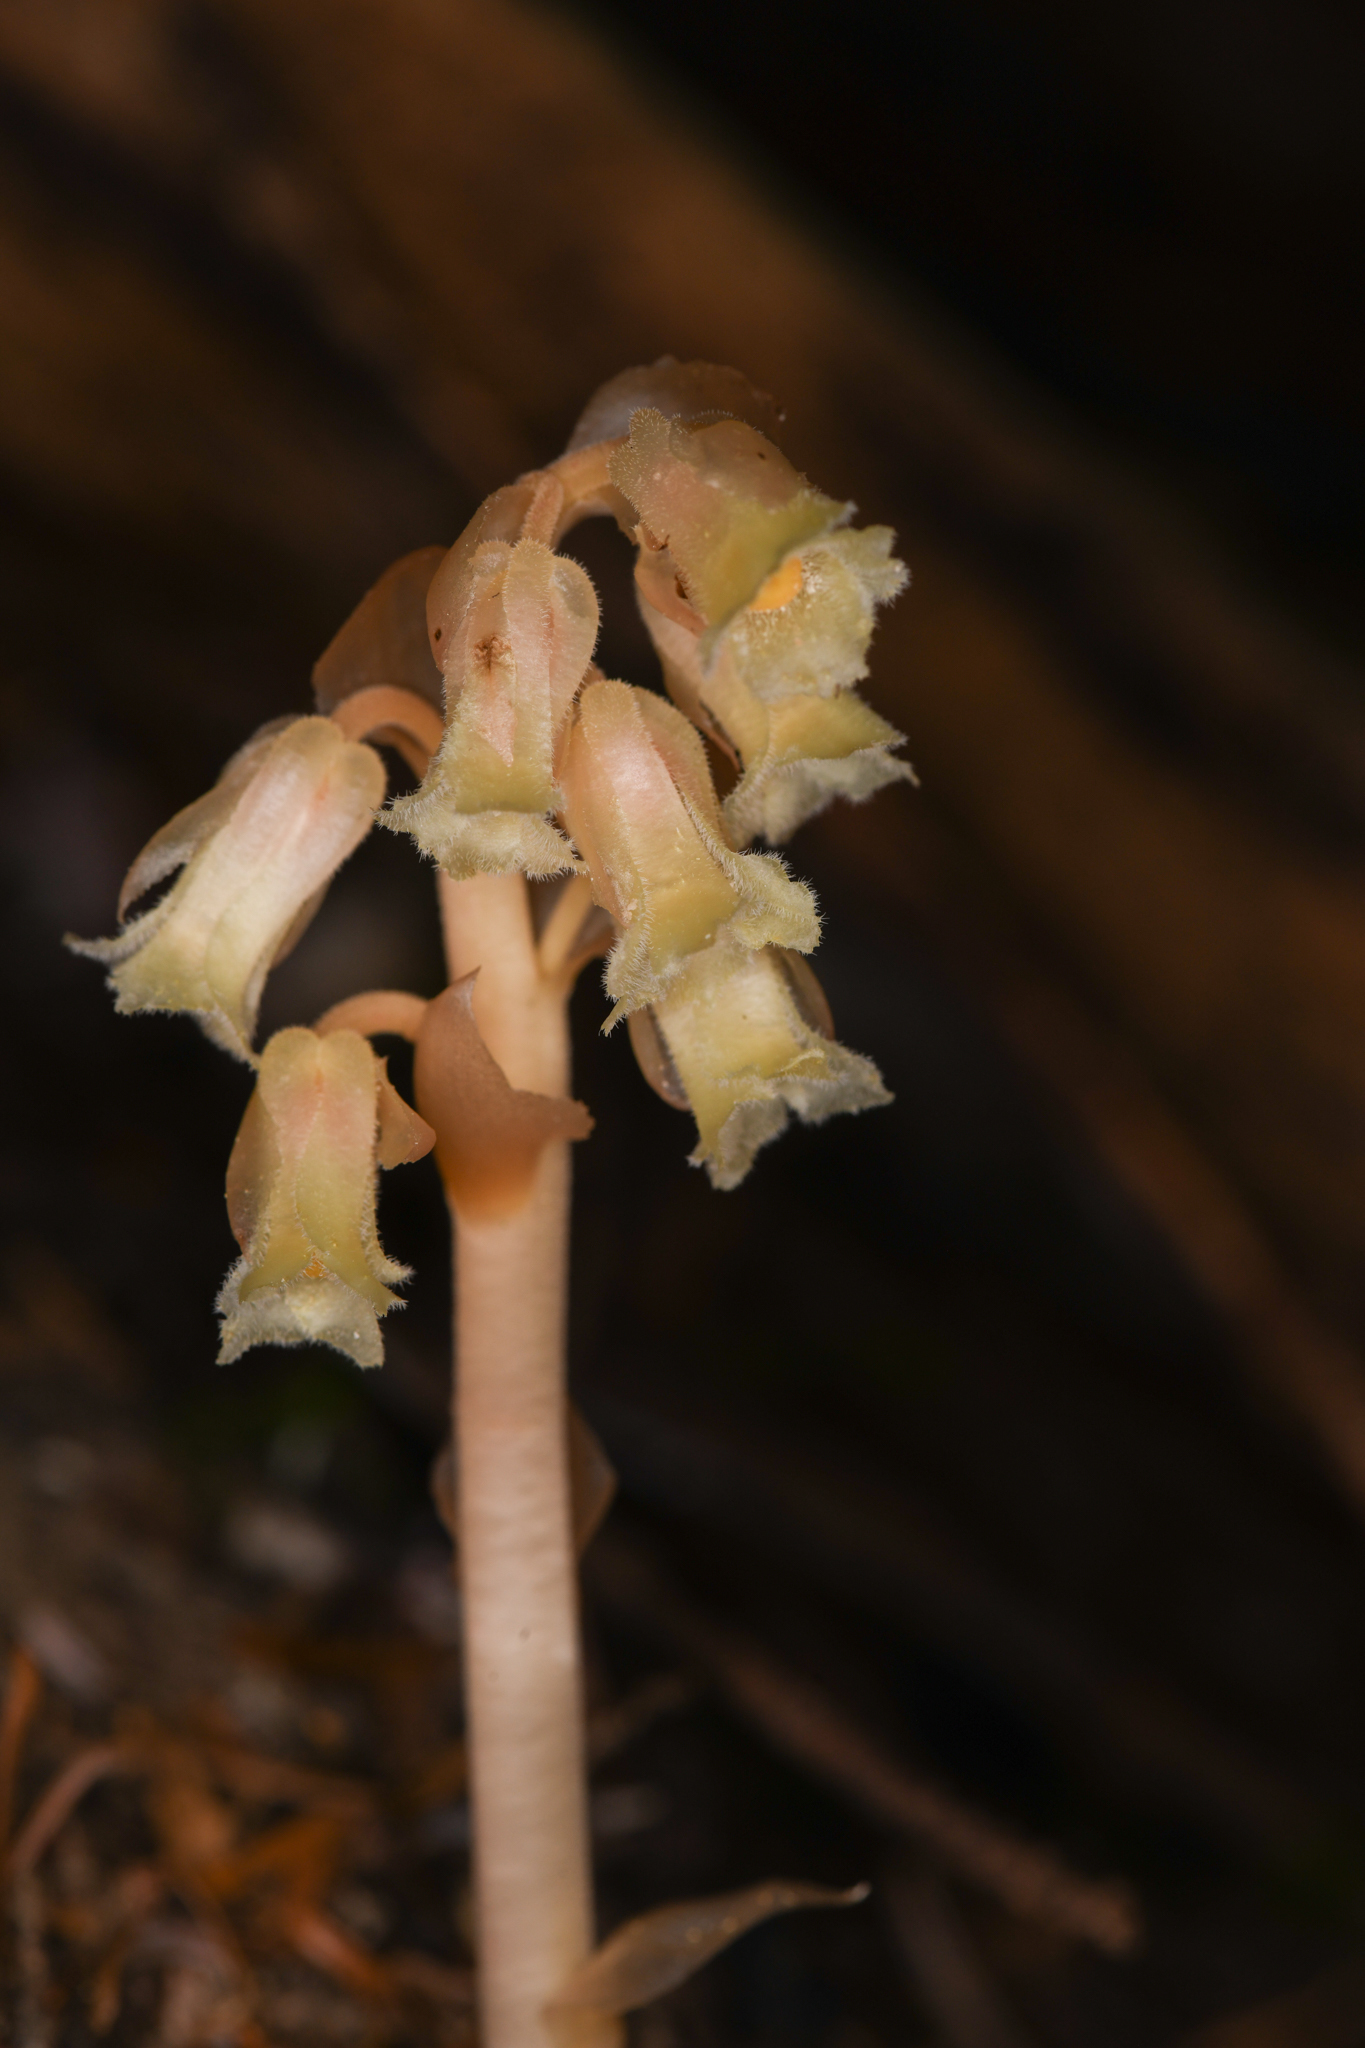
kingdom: Plantae
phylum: Tracheophyta
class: Magnoliopsida
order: Ericales
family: Ericaceae
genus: Hypopitys
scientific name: Hypopitys monotropa
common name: Yellow bird's-nest
